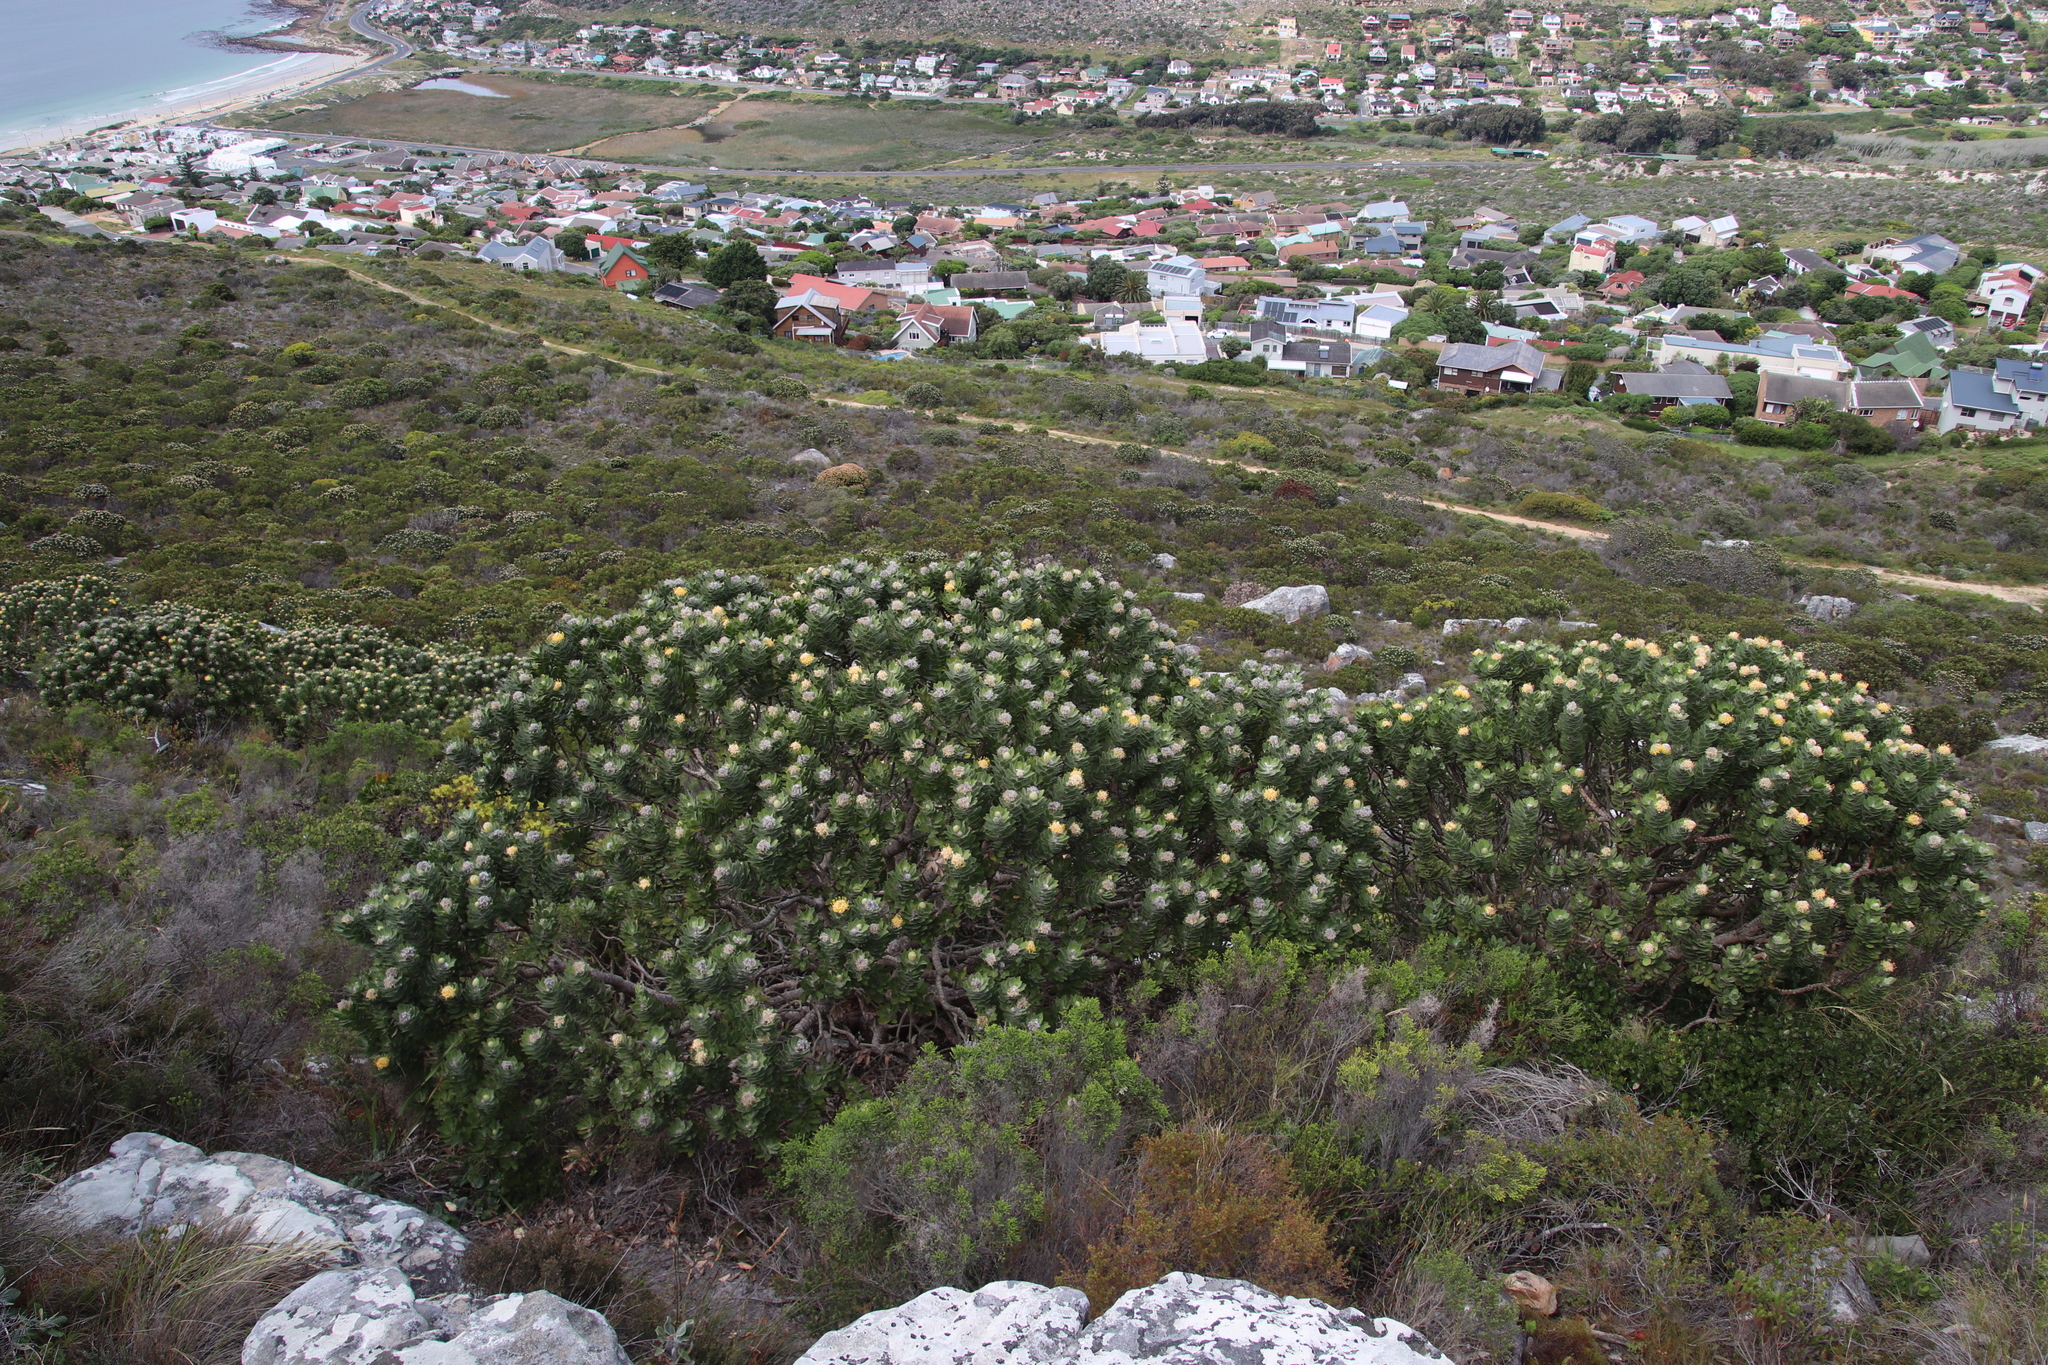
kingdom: Plantae
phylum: Tracheophyta
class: Magnoliopsida
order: Proteales
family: Proteaceae
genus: Leucospermum
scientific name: Leucospermum conocarpodendron
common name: Tree pincushion
